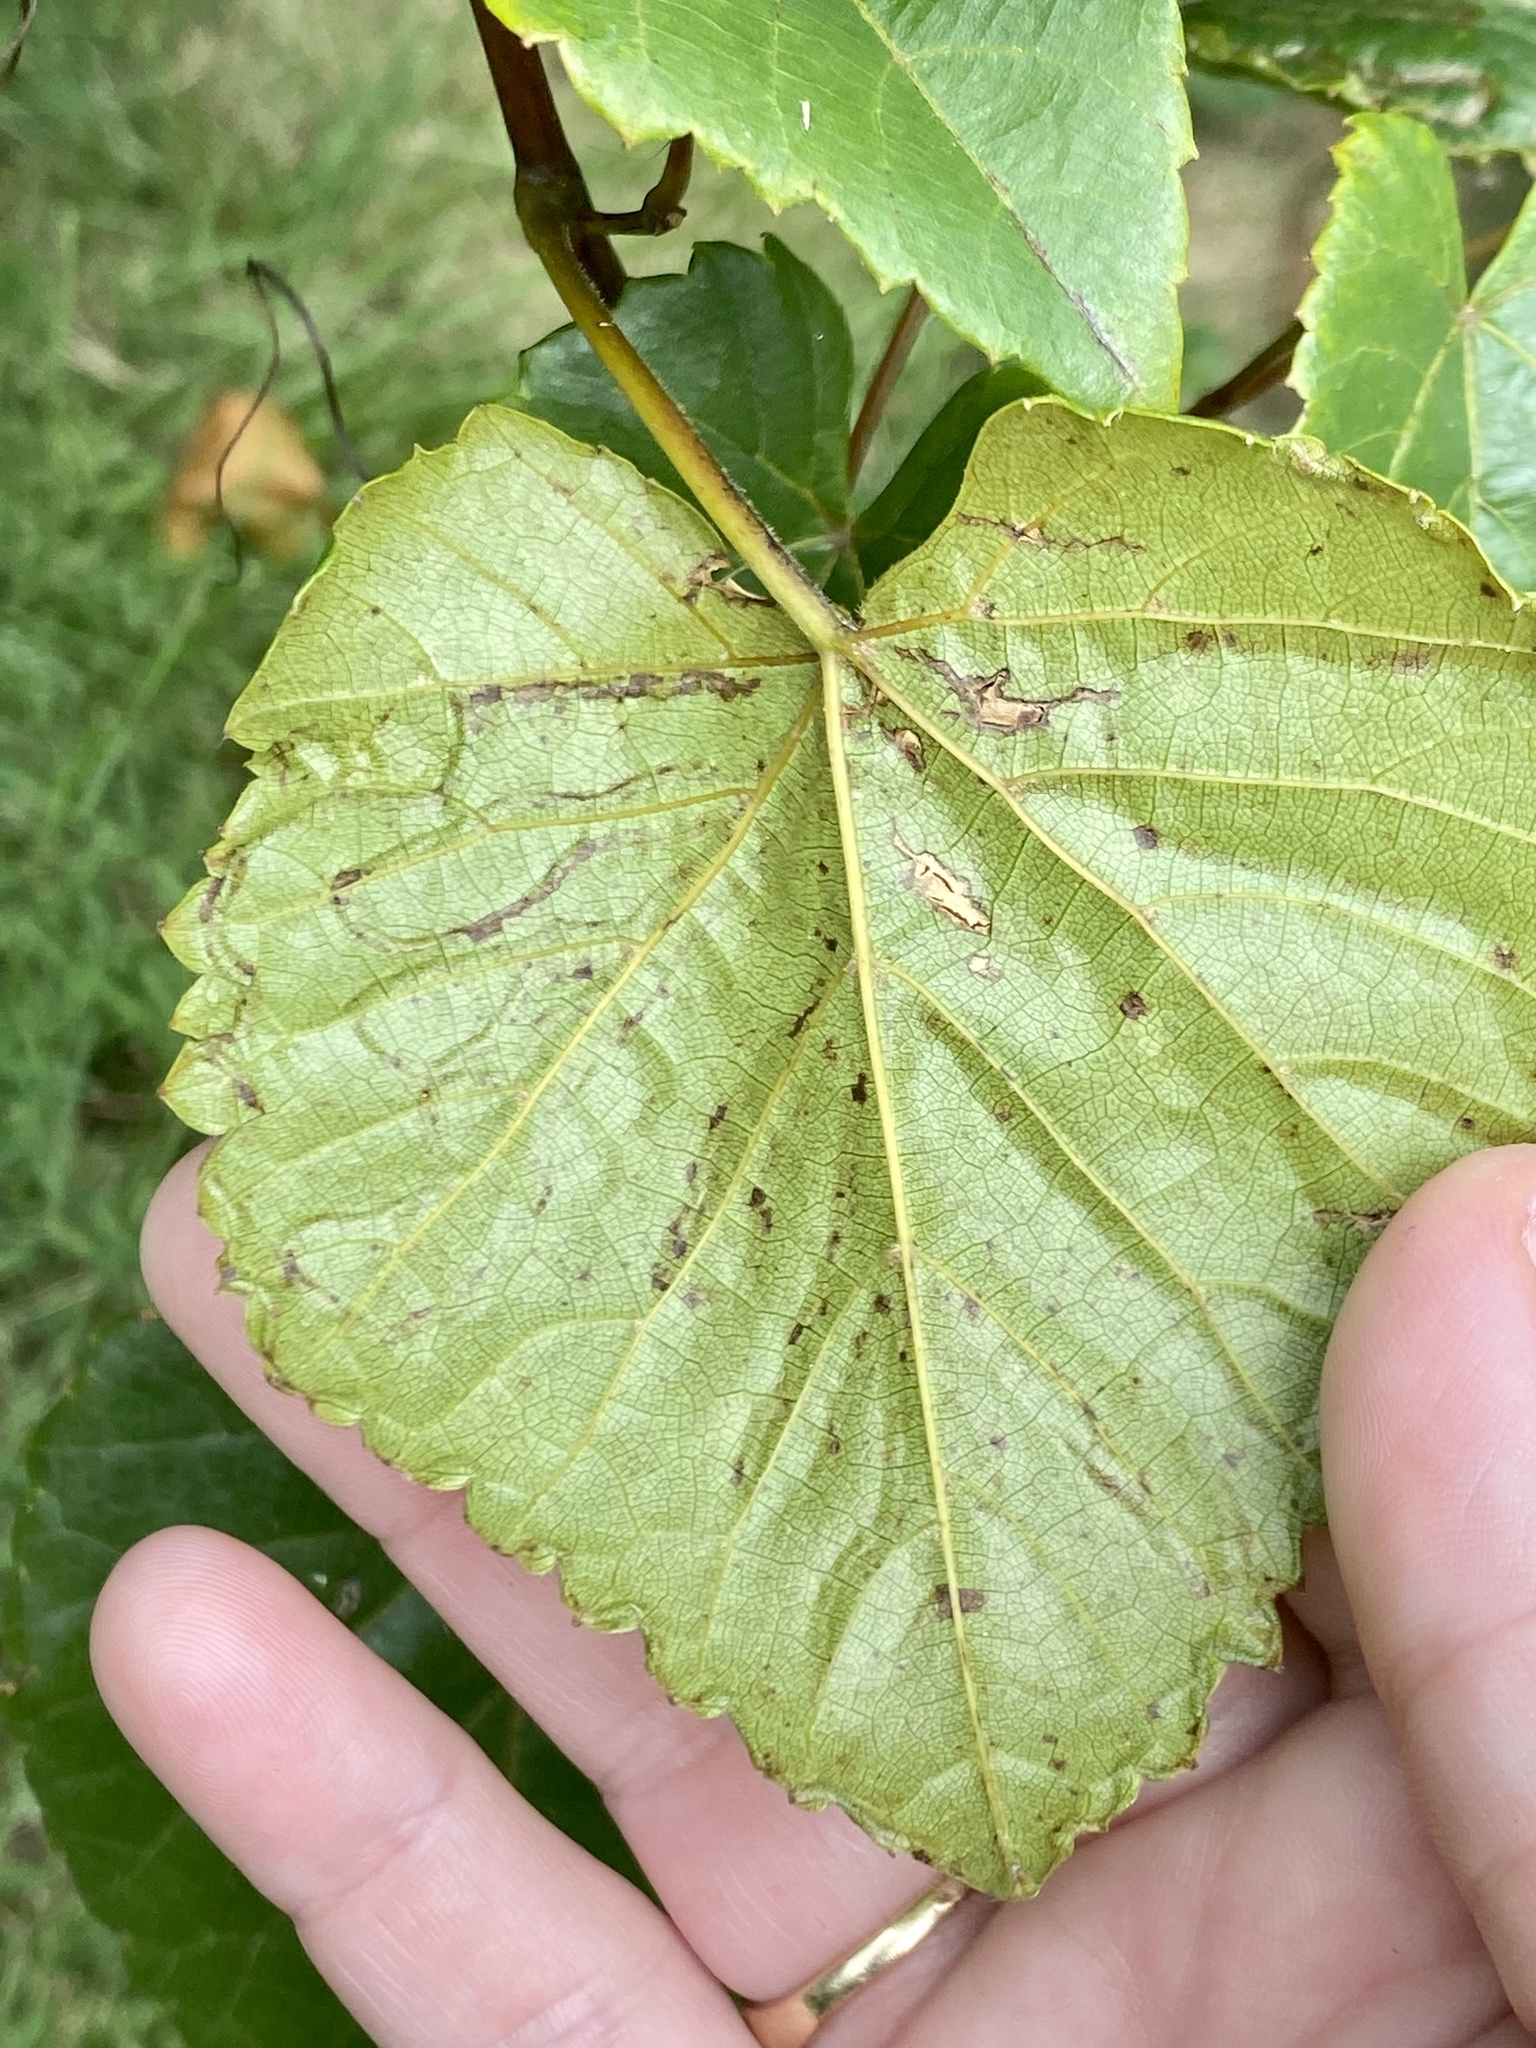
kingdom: Animalia
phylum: Arthropoda
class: Insecta
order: Lepidoptera
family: Gracillariidae
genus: Phyllocnistis
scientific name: Phyllocnistis vitegenella
